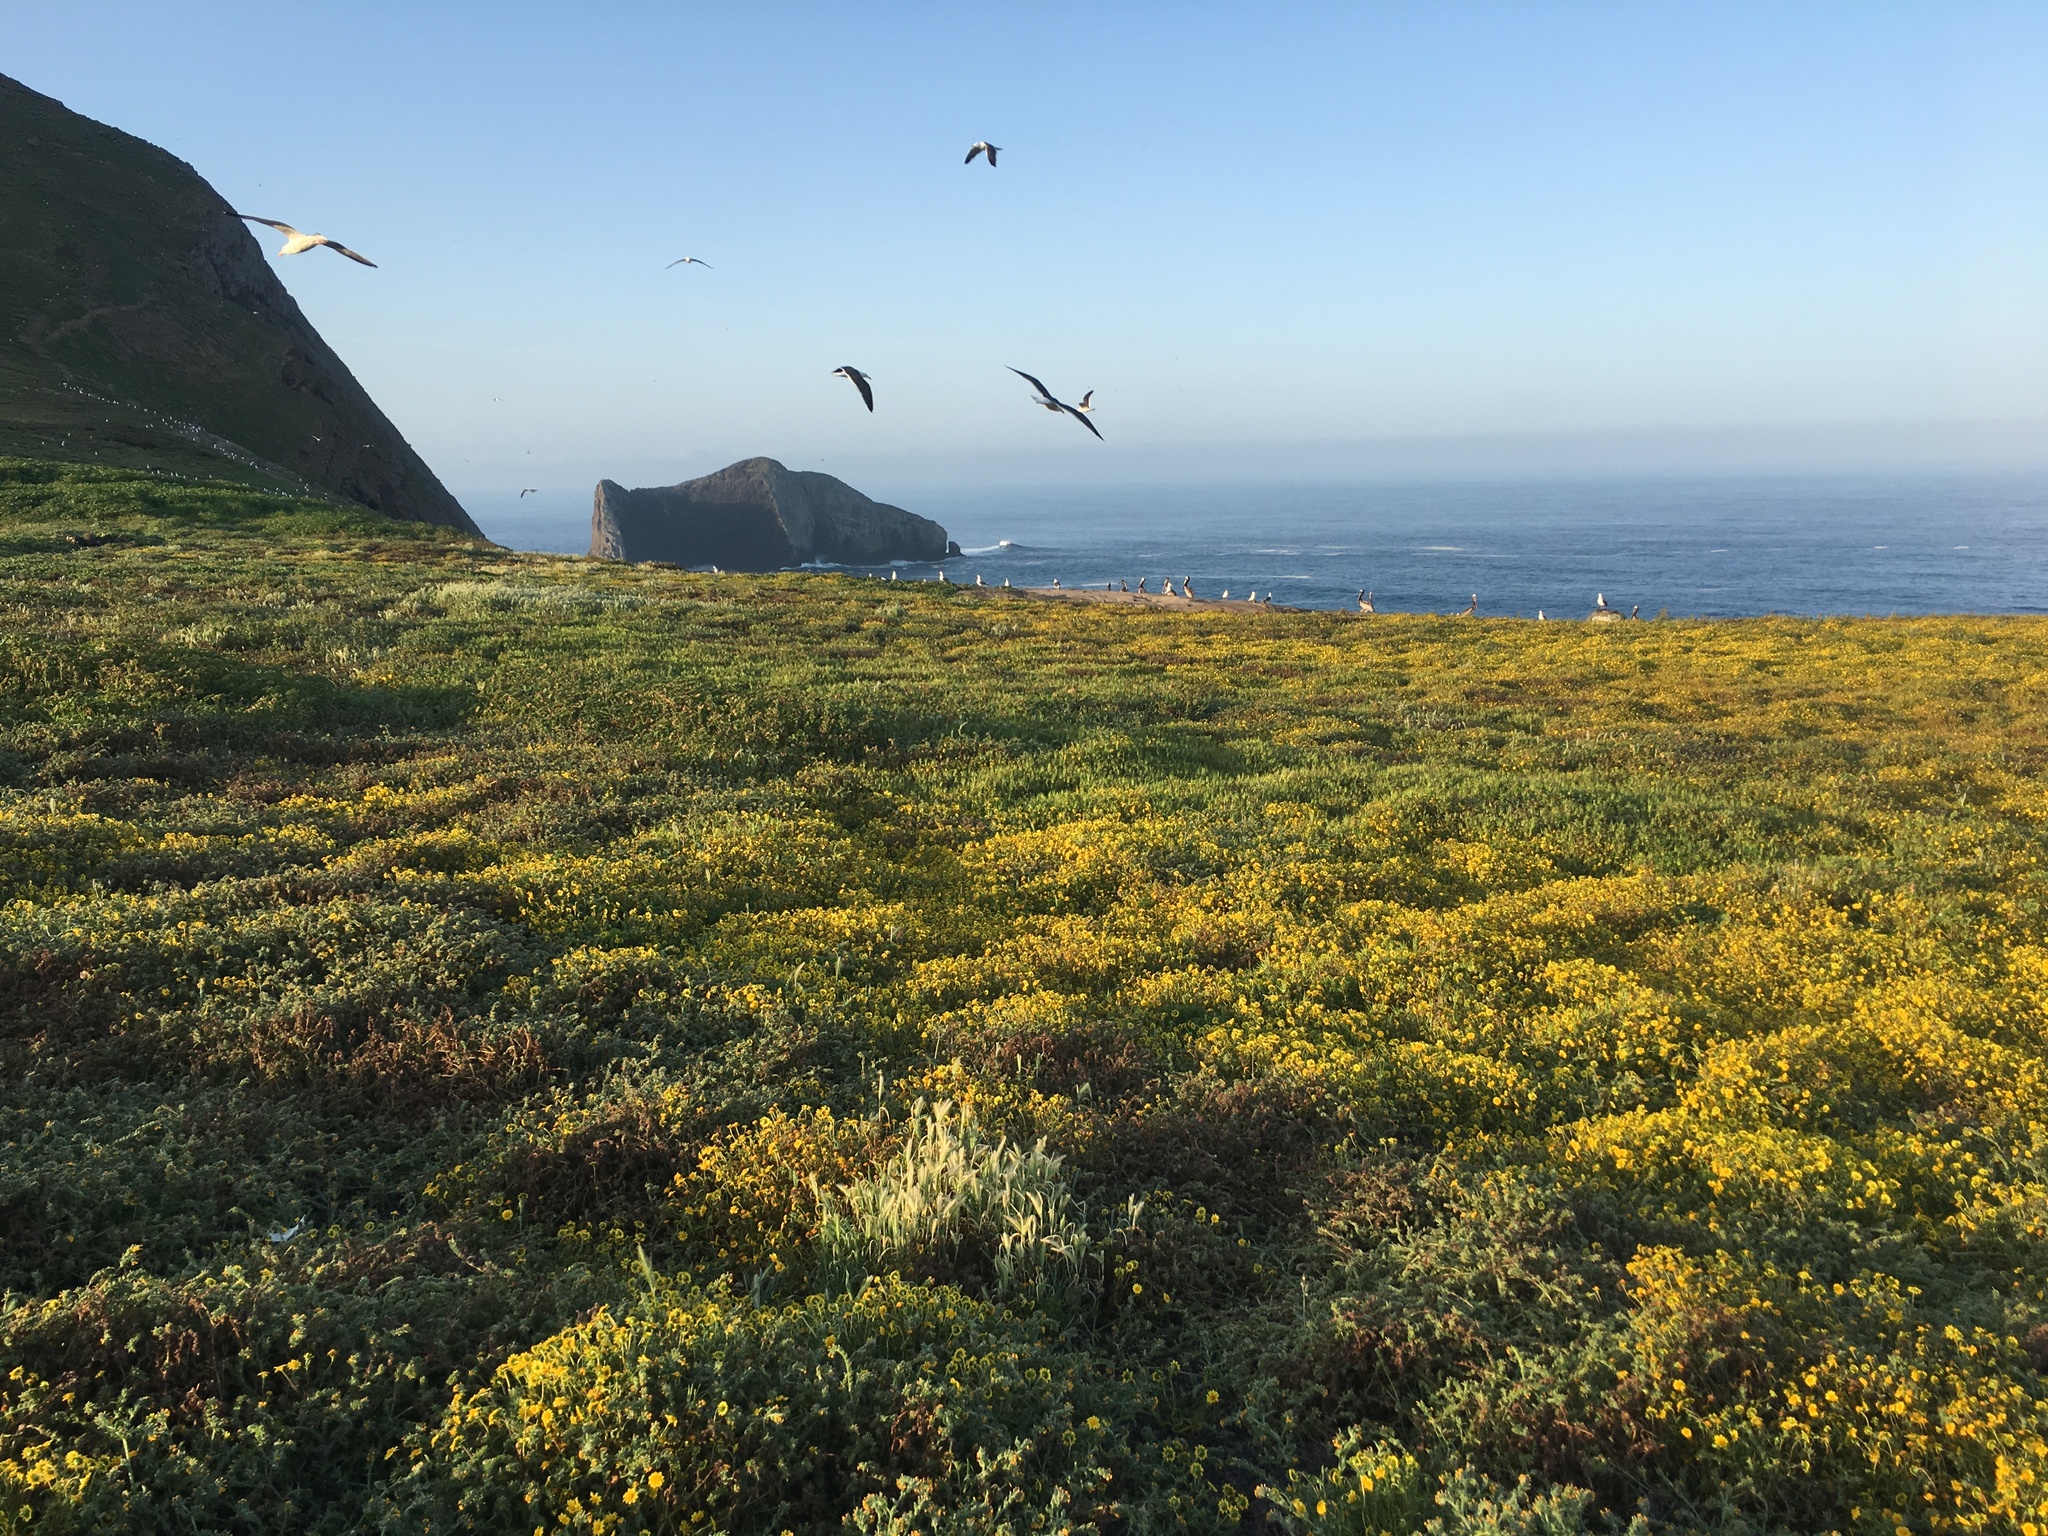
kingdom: Animalia
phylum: Chordata
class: Aves
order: Charadriiformes
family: Laridae
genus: Larus
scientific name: Larus occidentalis
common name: Western gull
